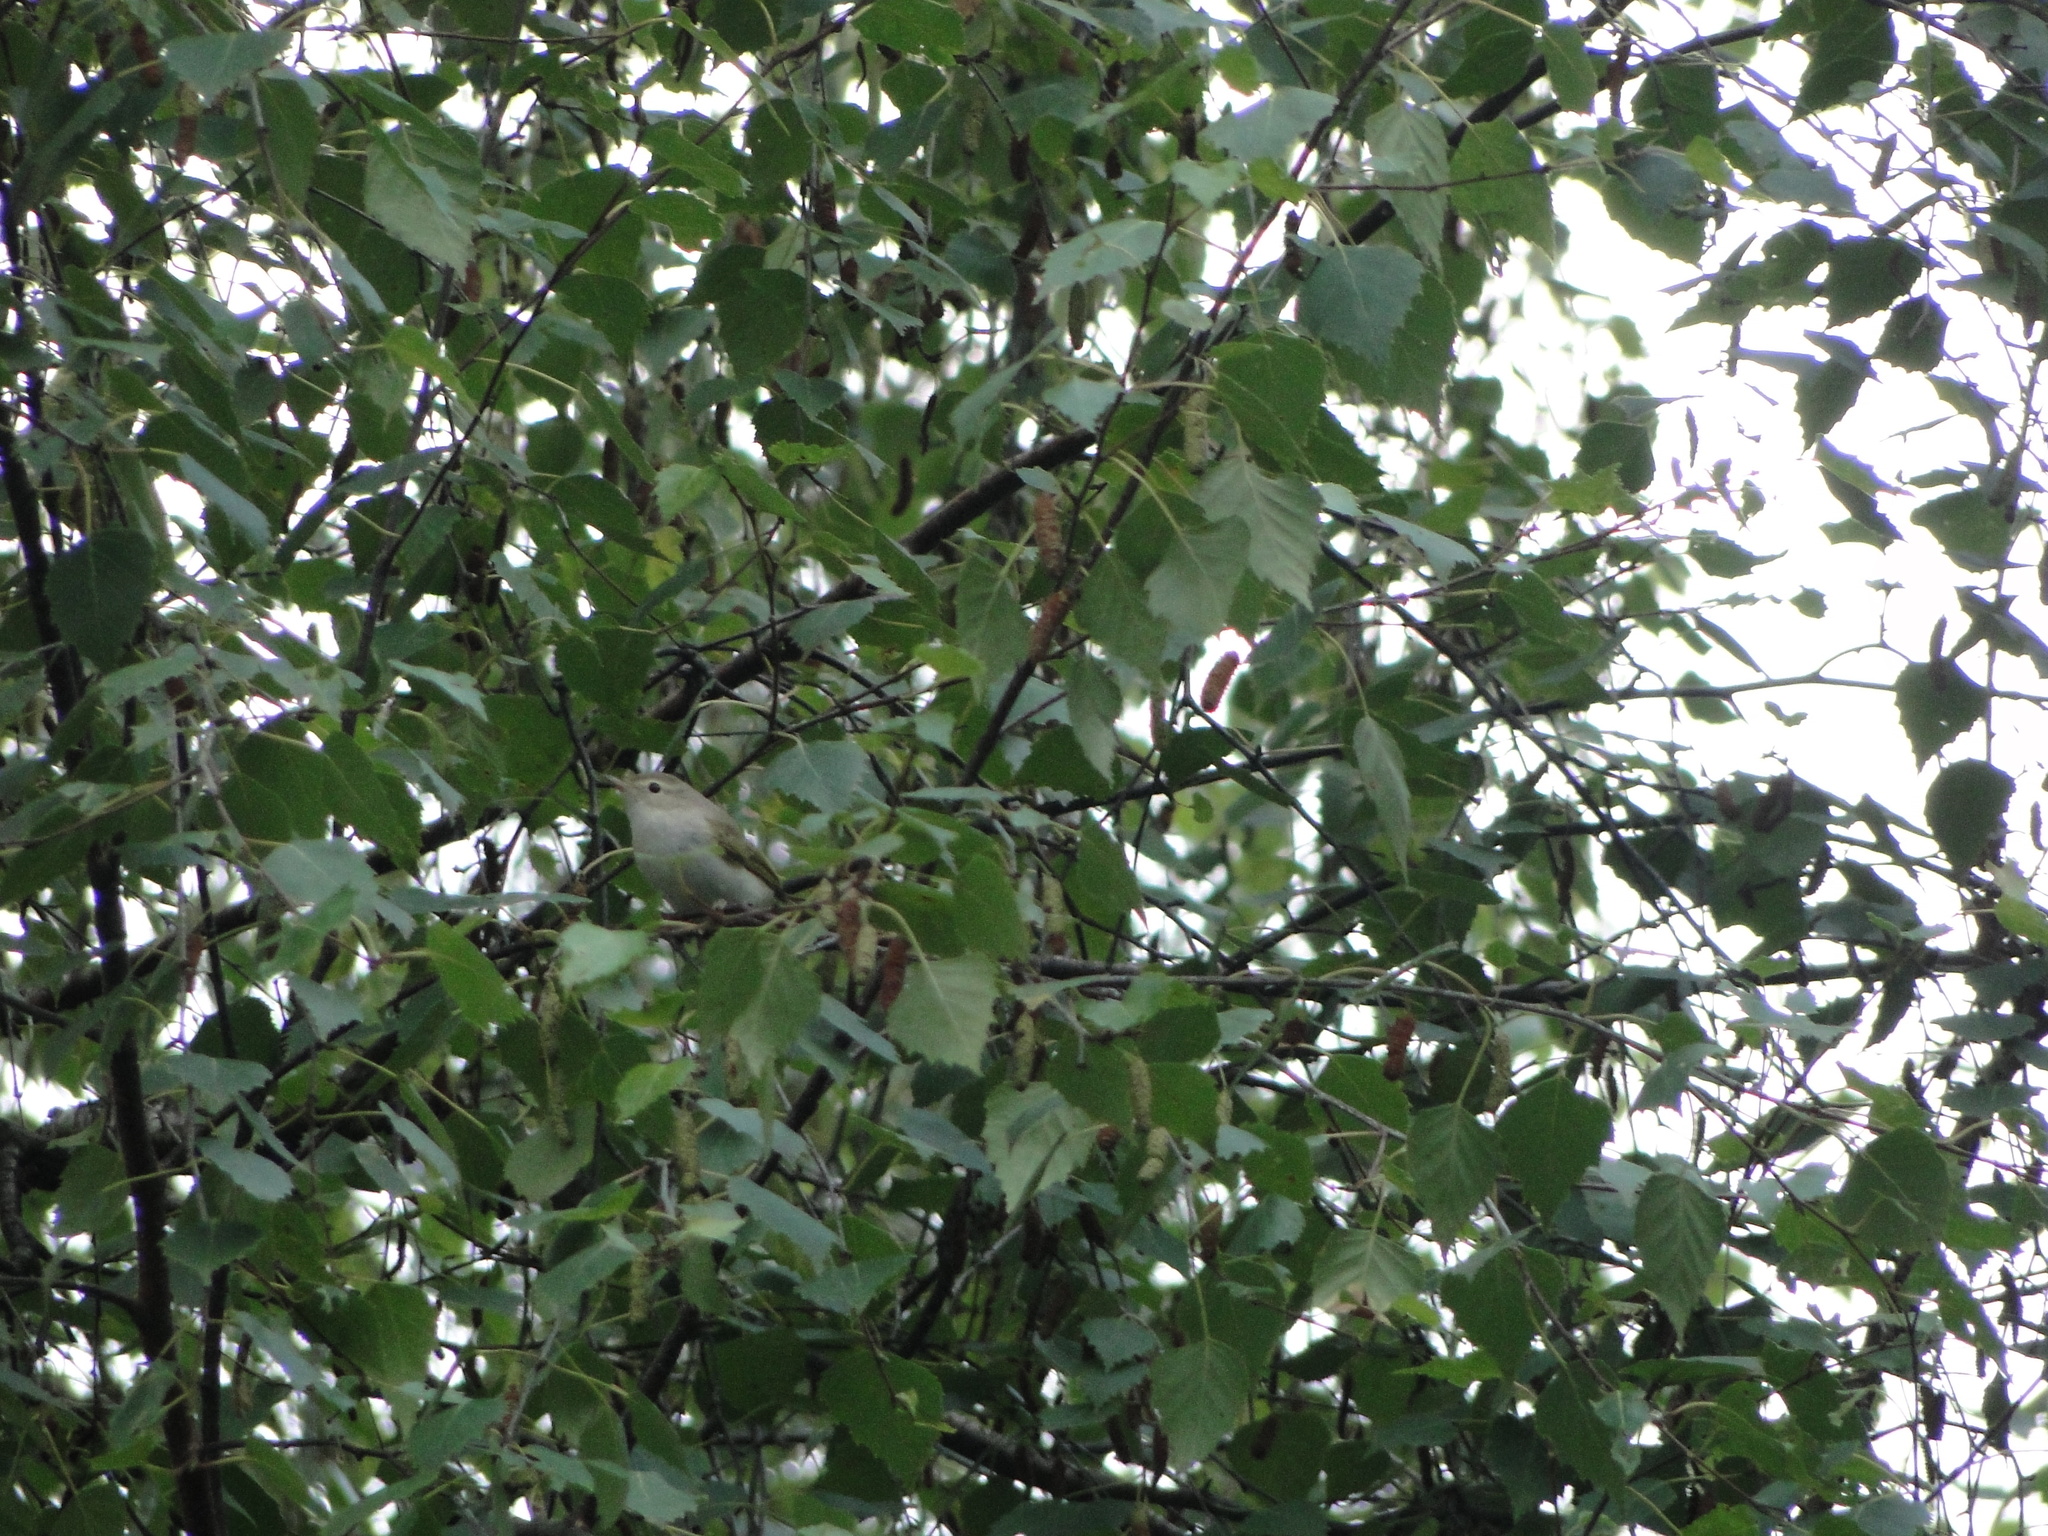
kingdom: Animalia
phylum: Chordata
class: Aves
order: Passeriformes
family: Phylloscopidae
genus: Phylloscopus
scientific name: Phylloscopus bonelli
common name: Western bonelli's warbler
